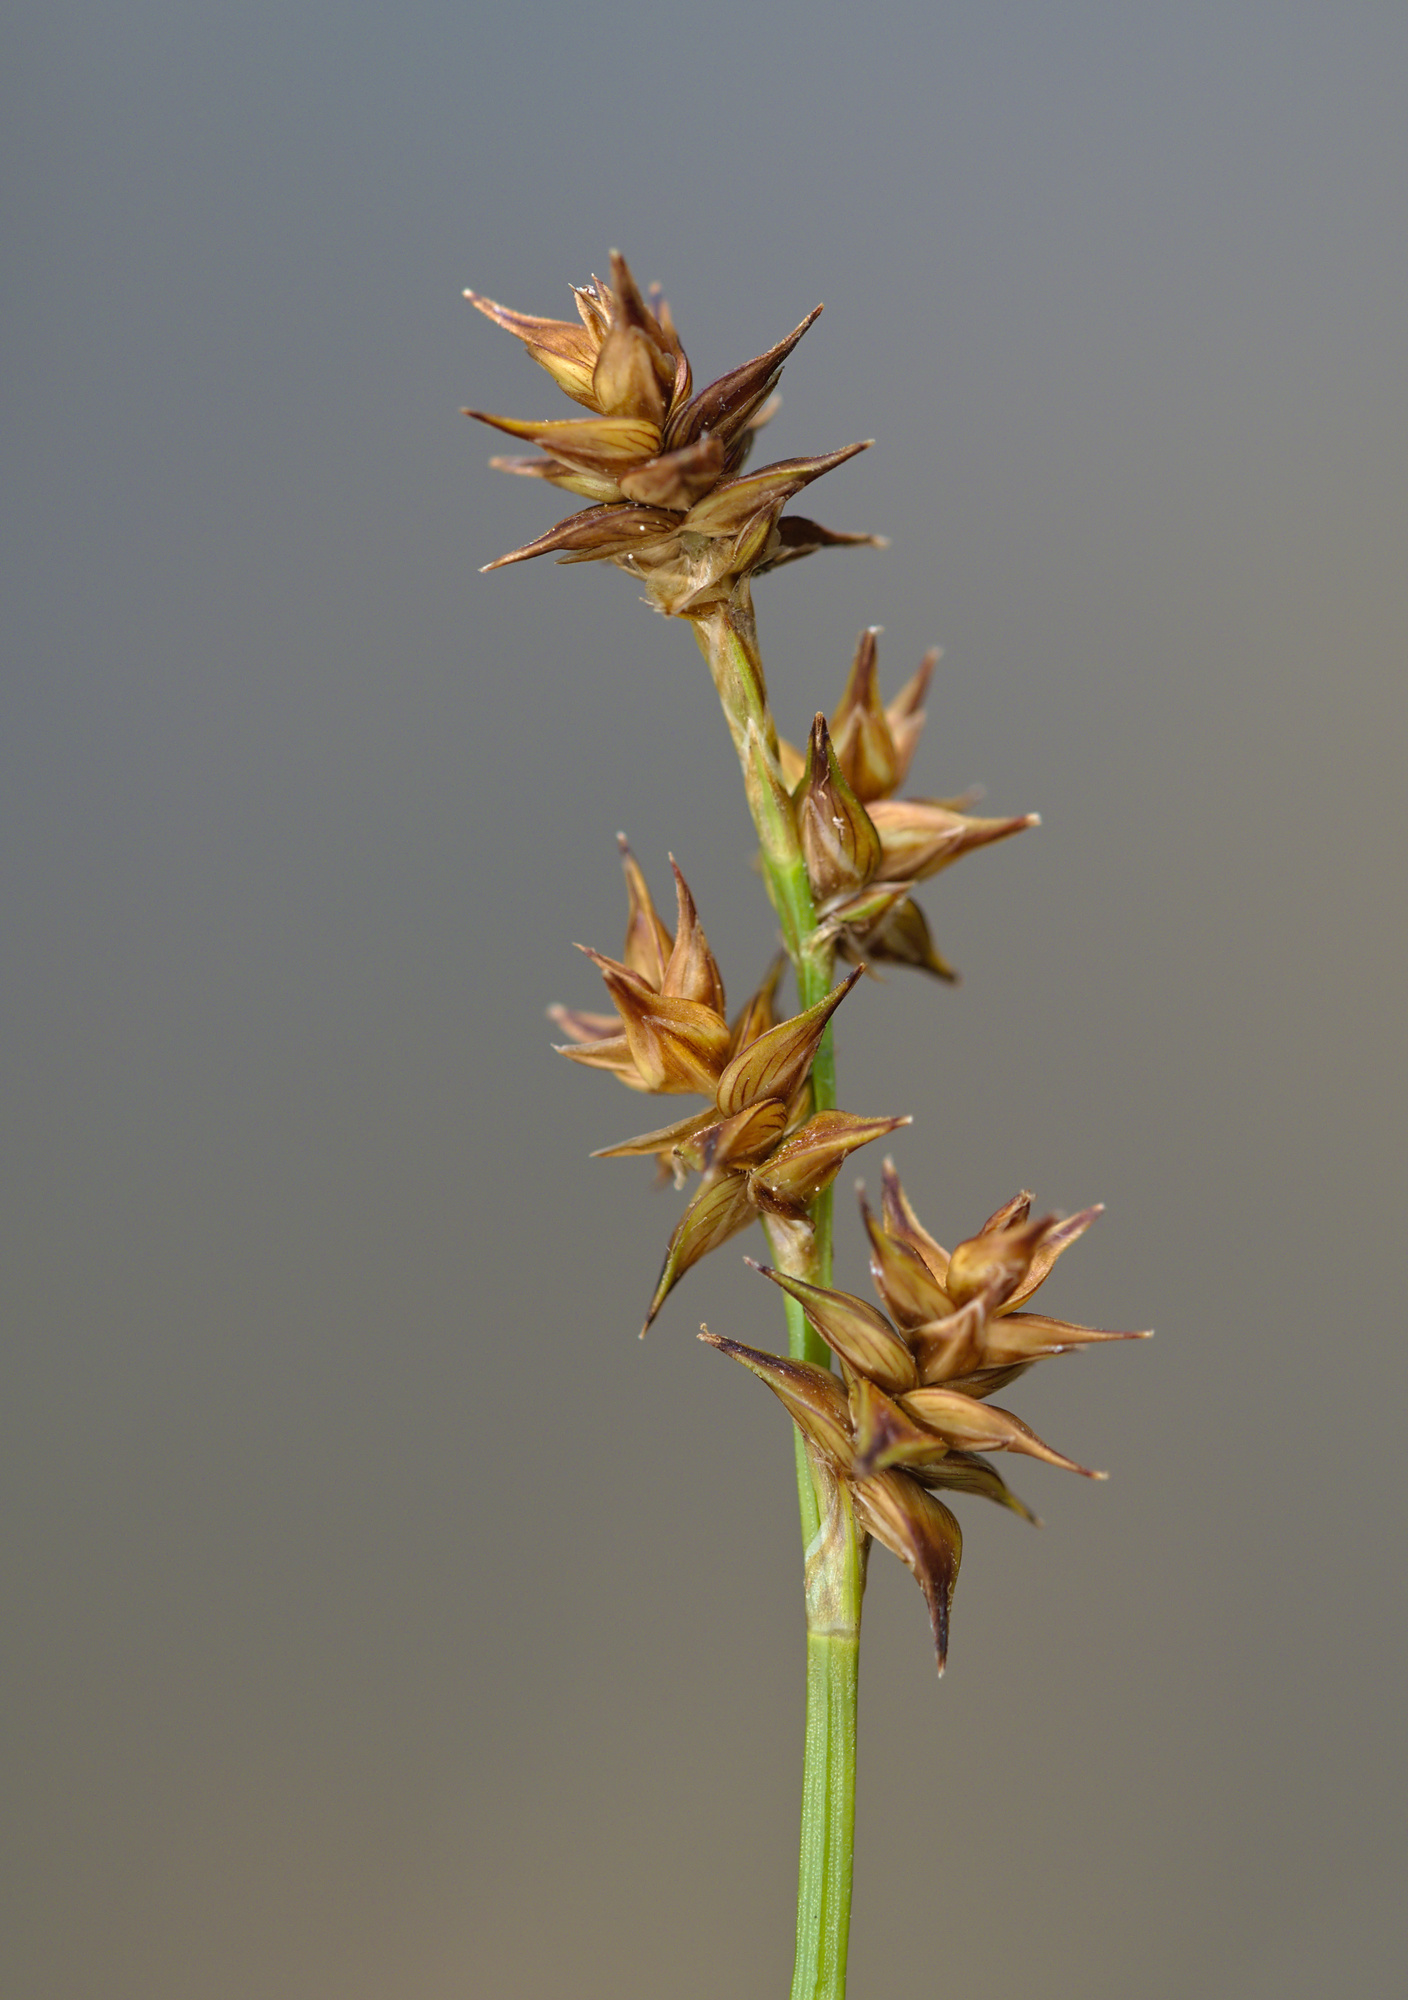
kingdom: Plantae
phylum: Tracheophyta
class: Liliopsida
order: Poales
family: Cyperaceae
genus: Carex
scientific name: Carex echinata
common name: Star sedge
